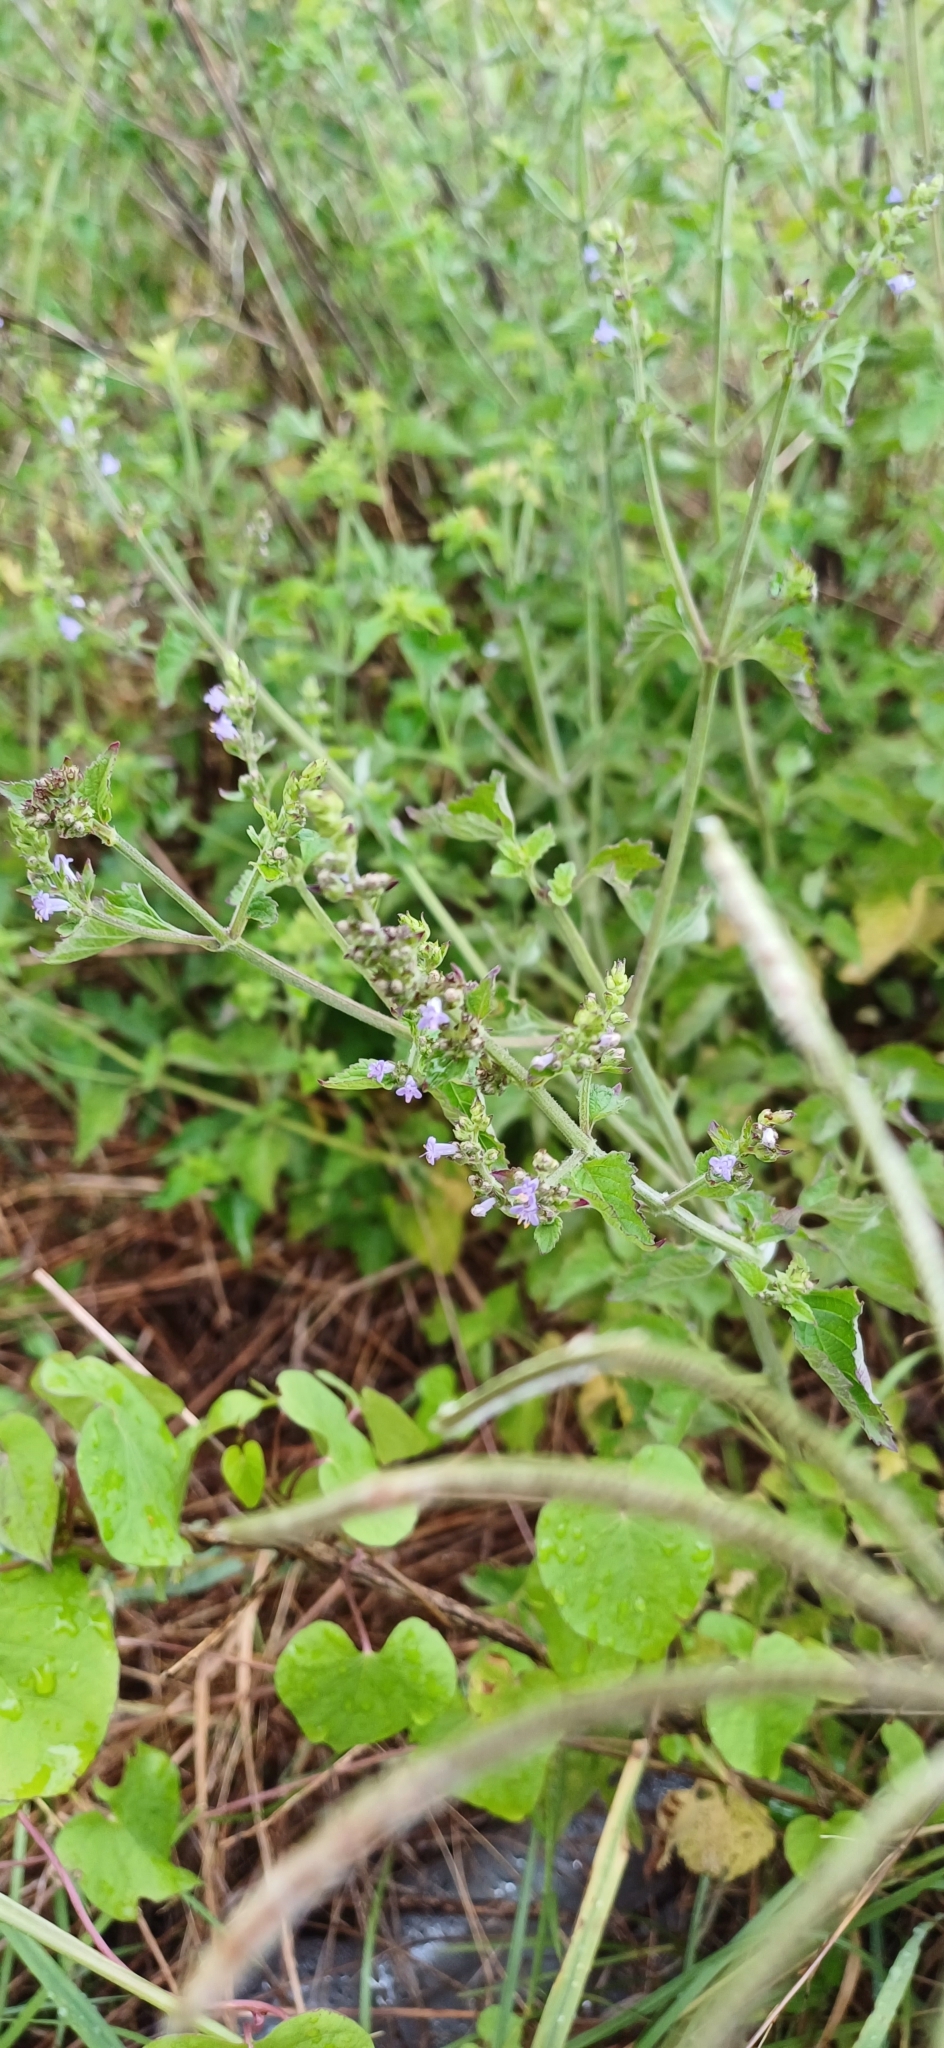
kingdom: Plantae
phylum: Tracheophyta
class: Magnoliopsida
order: Lamiales
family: Lamiaceae
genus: Cantinoa
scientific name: Cantinoa mutabilis
